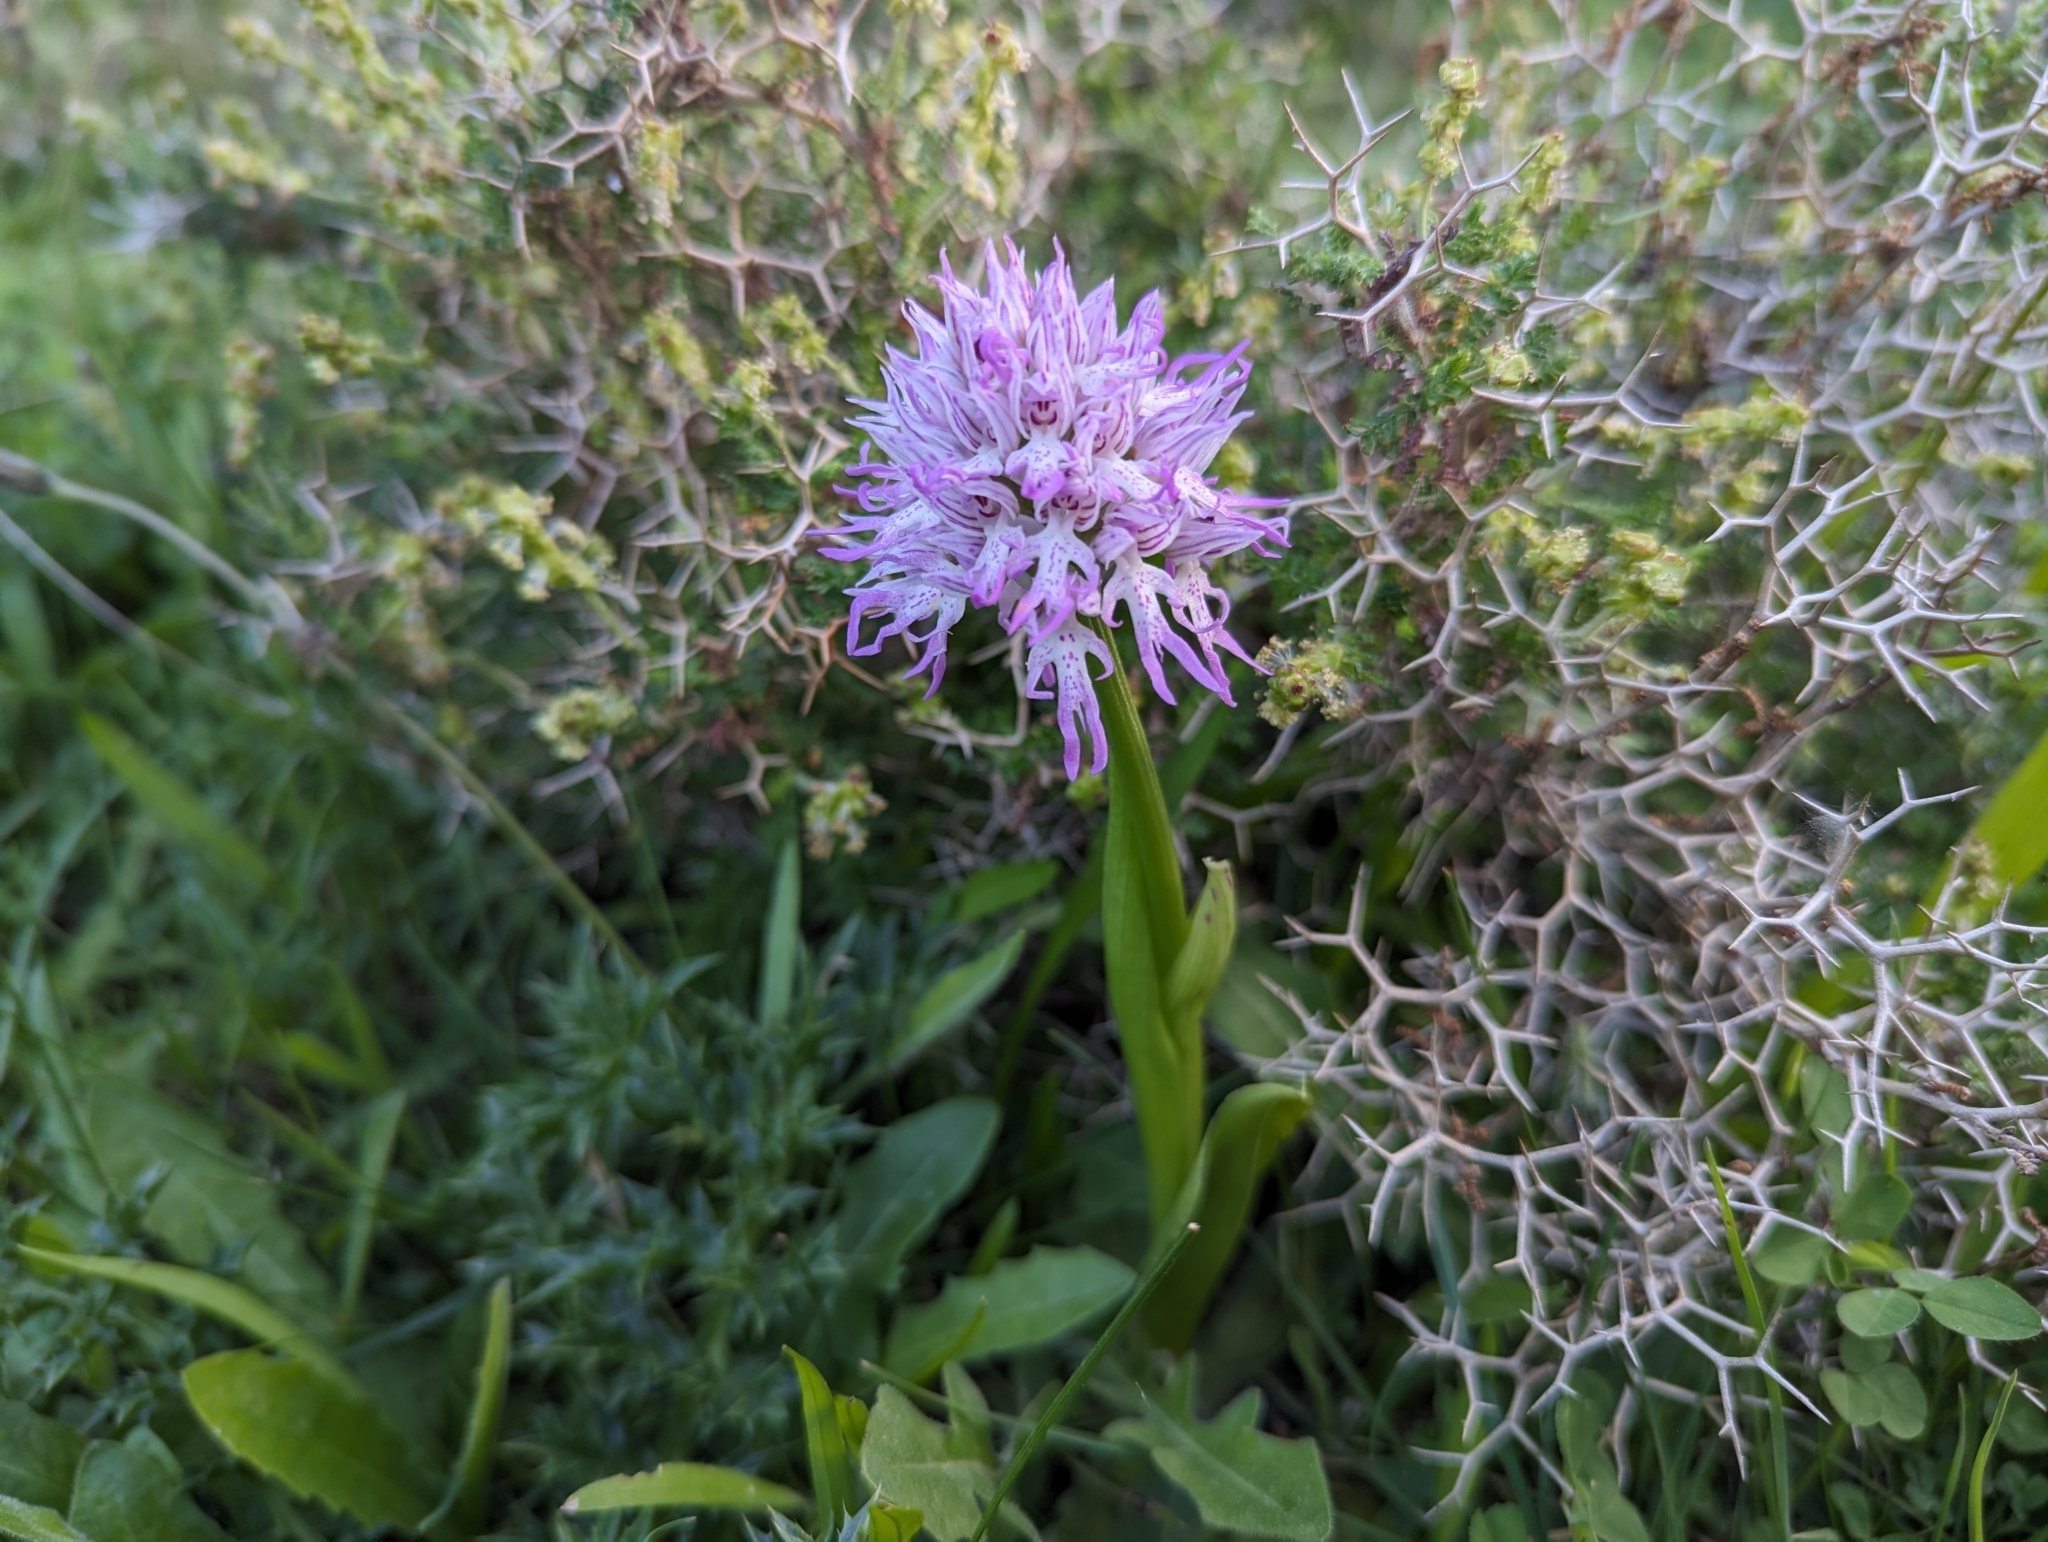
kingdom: Plantae
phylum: Tracheophyta
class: Liliopsida
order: Asparagales
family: Orchidaceae
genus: Orchis
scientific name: Orchis italica
